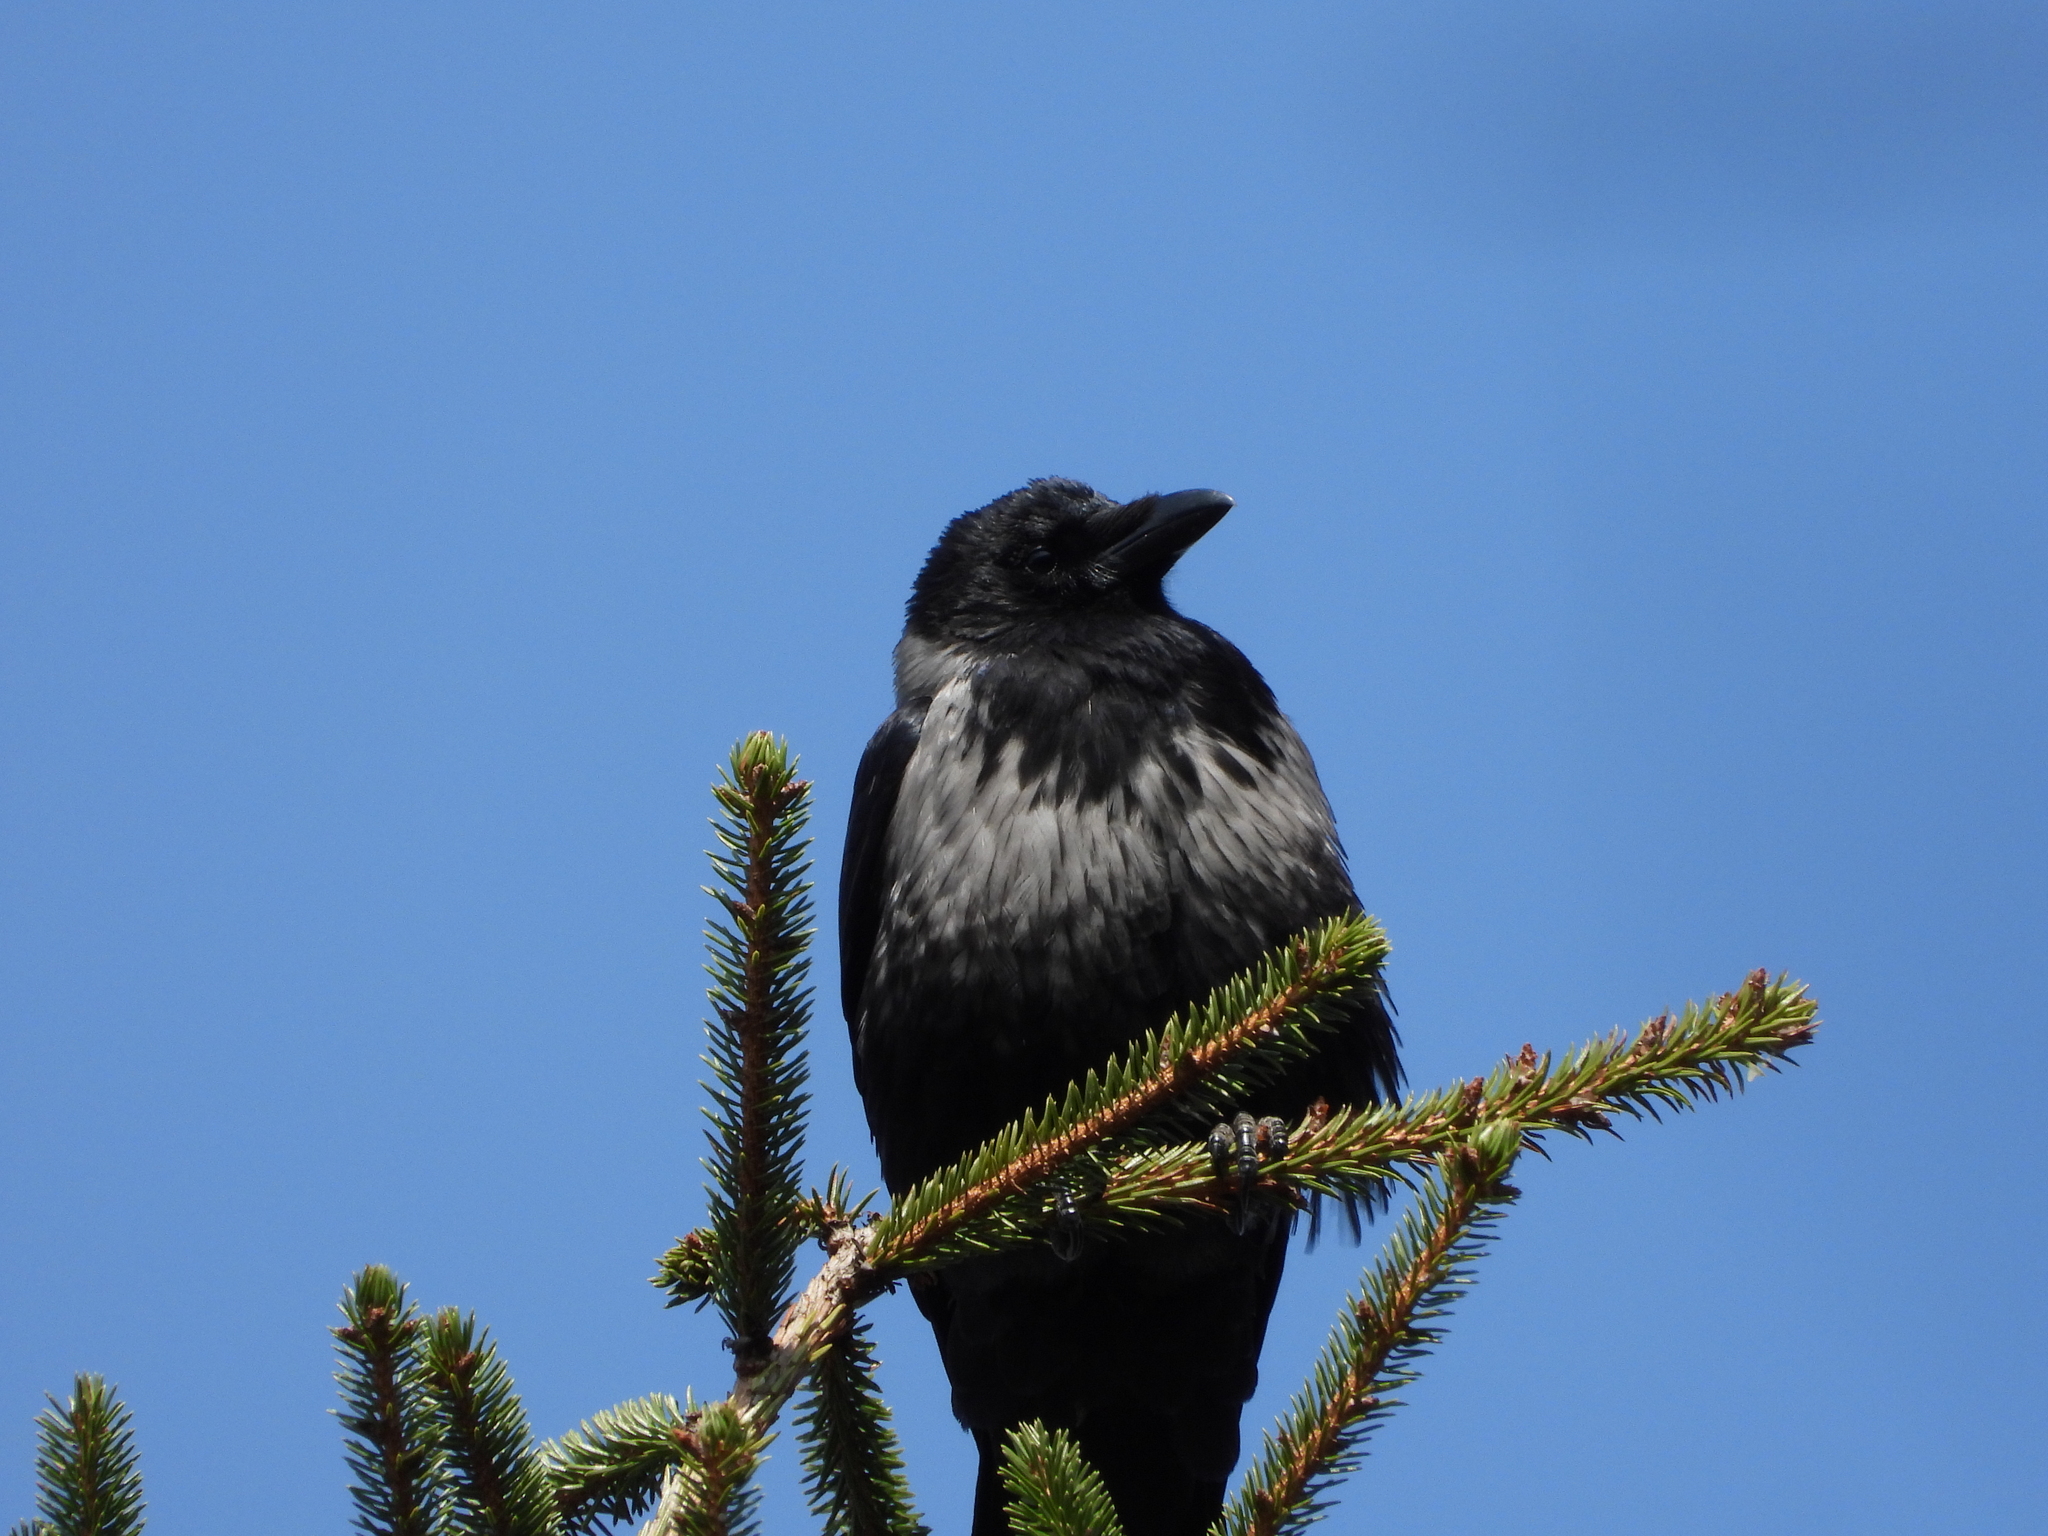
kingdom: Animalia
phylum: Chordata
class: Aves
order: Passeriformes
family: Corvidae
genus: Corvus
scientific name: Corvus
